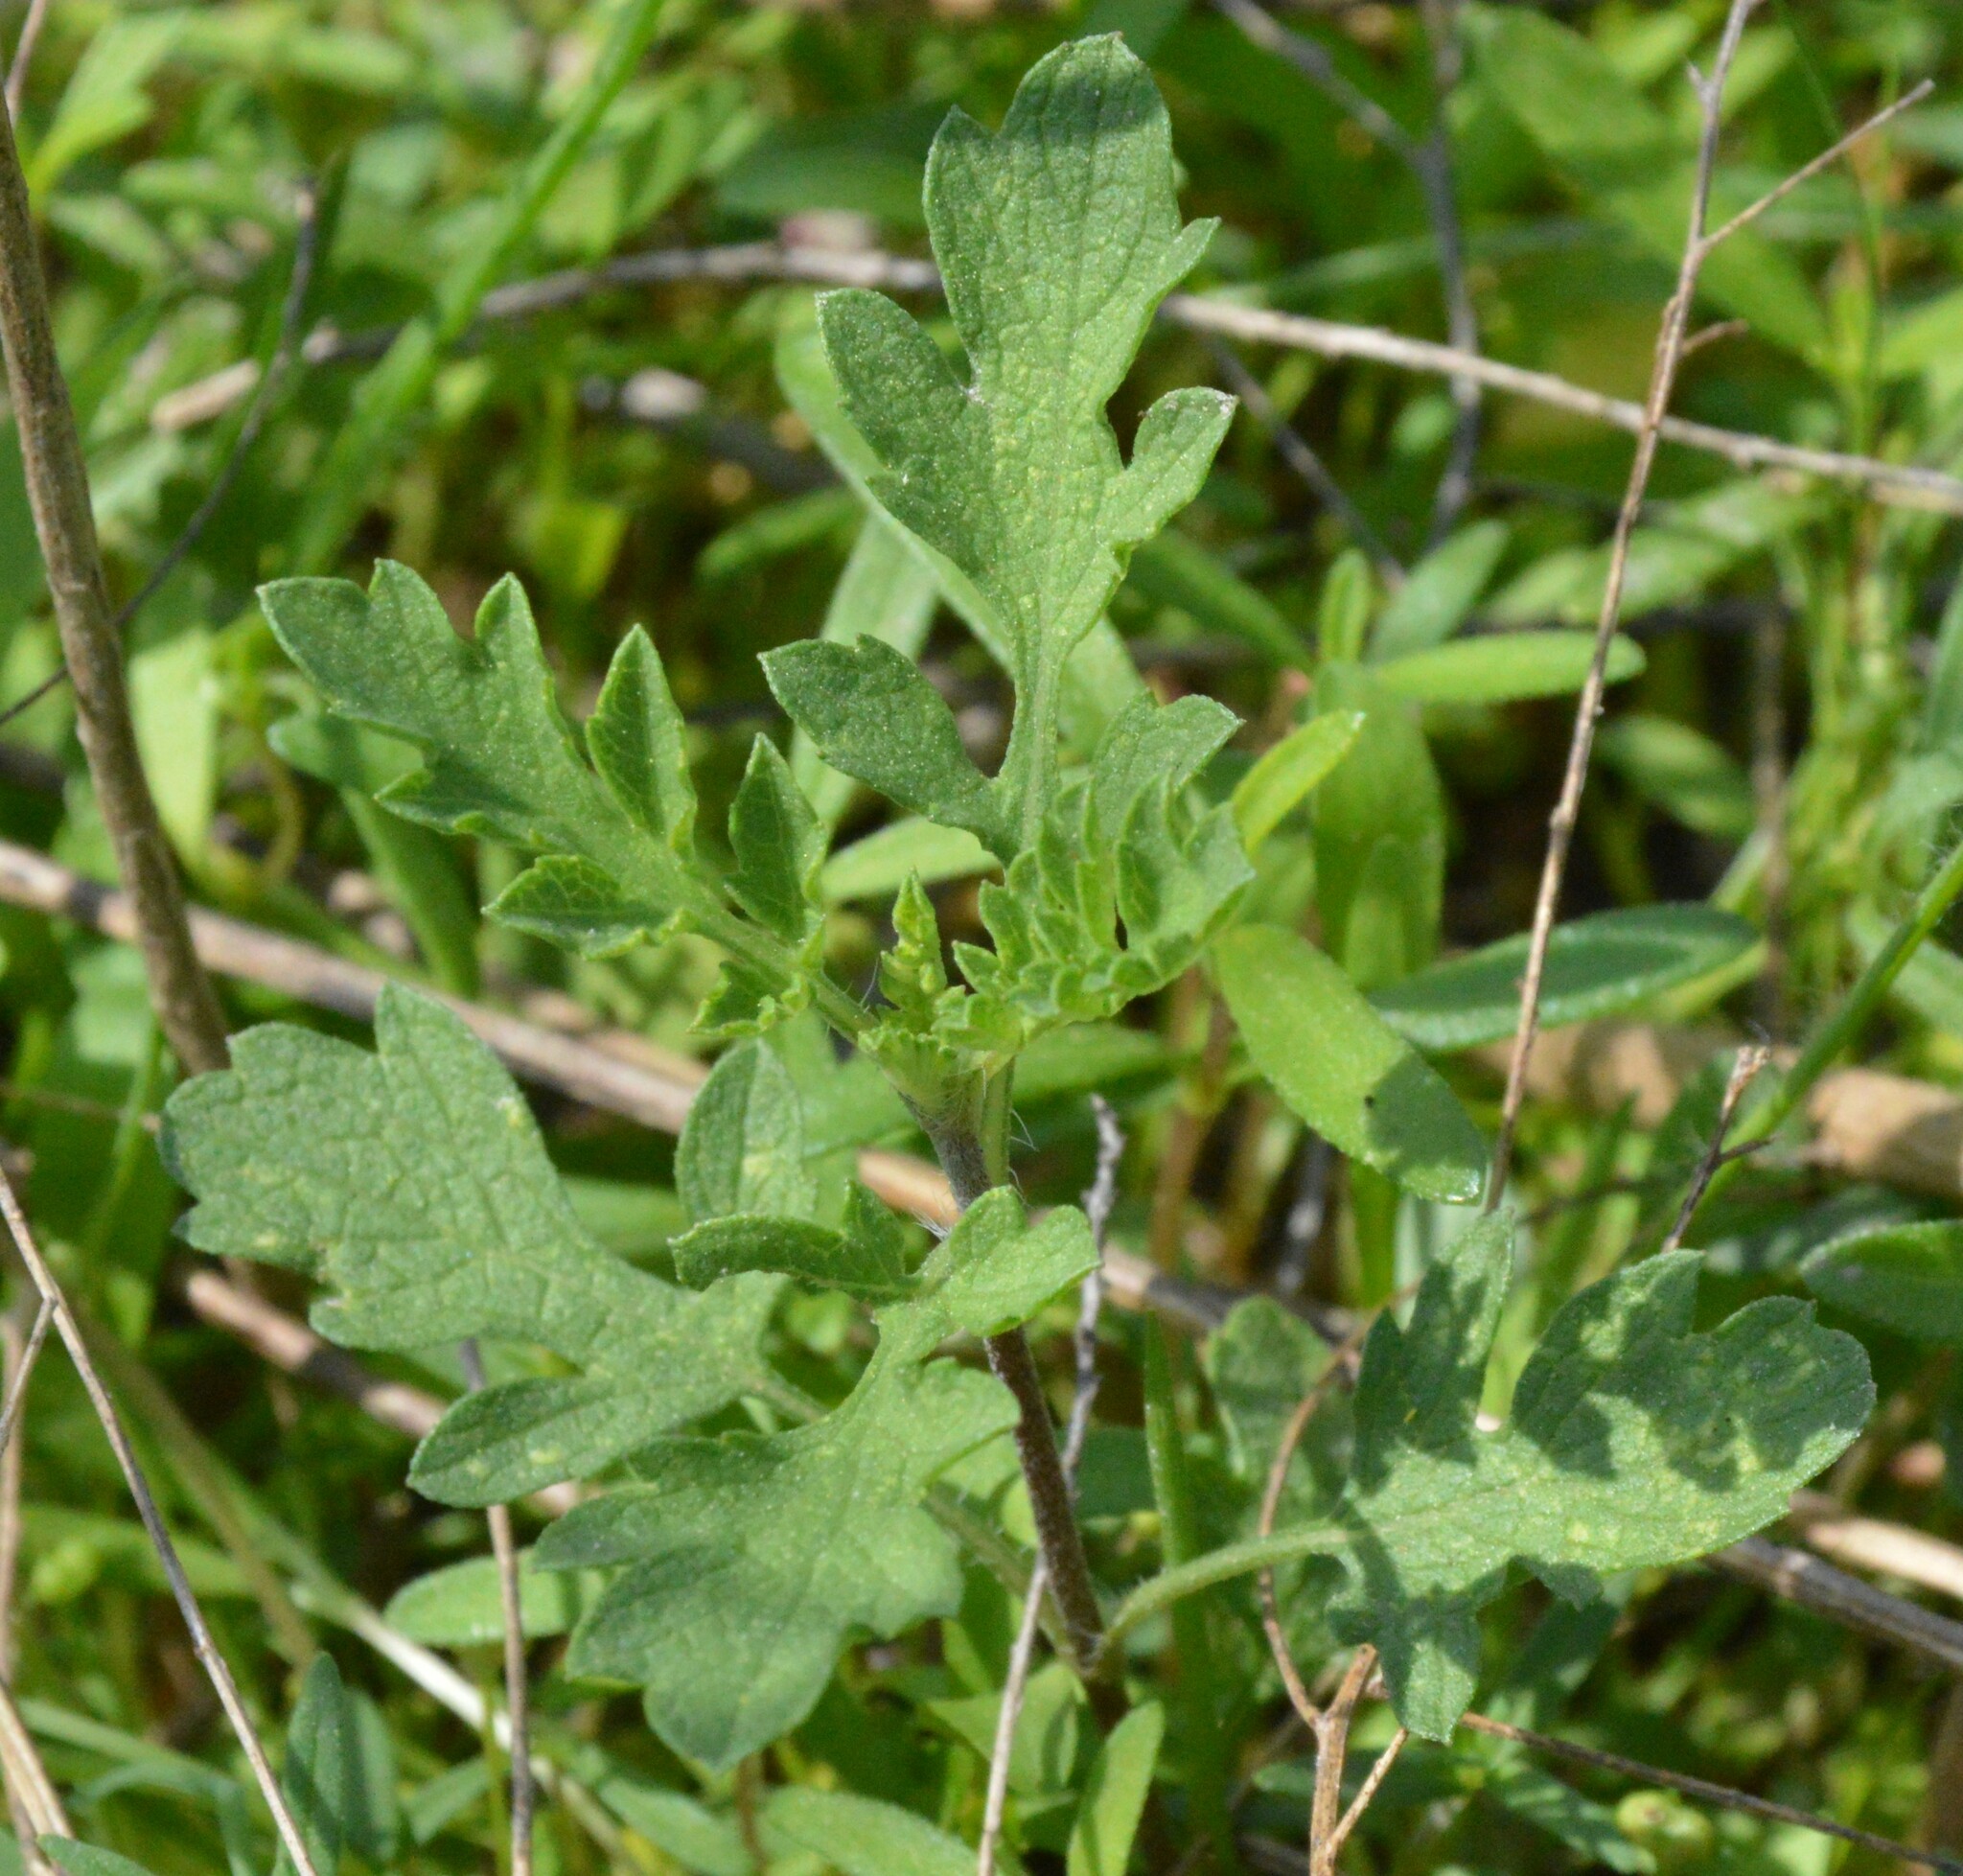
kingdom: Plantae
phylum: Tracheophyta
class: Magnoliopsida
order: Asterales
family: Asteraceae
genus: Ambrosia
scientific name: Ambrosia psilostachya
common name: Perennial ragweed
